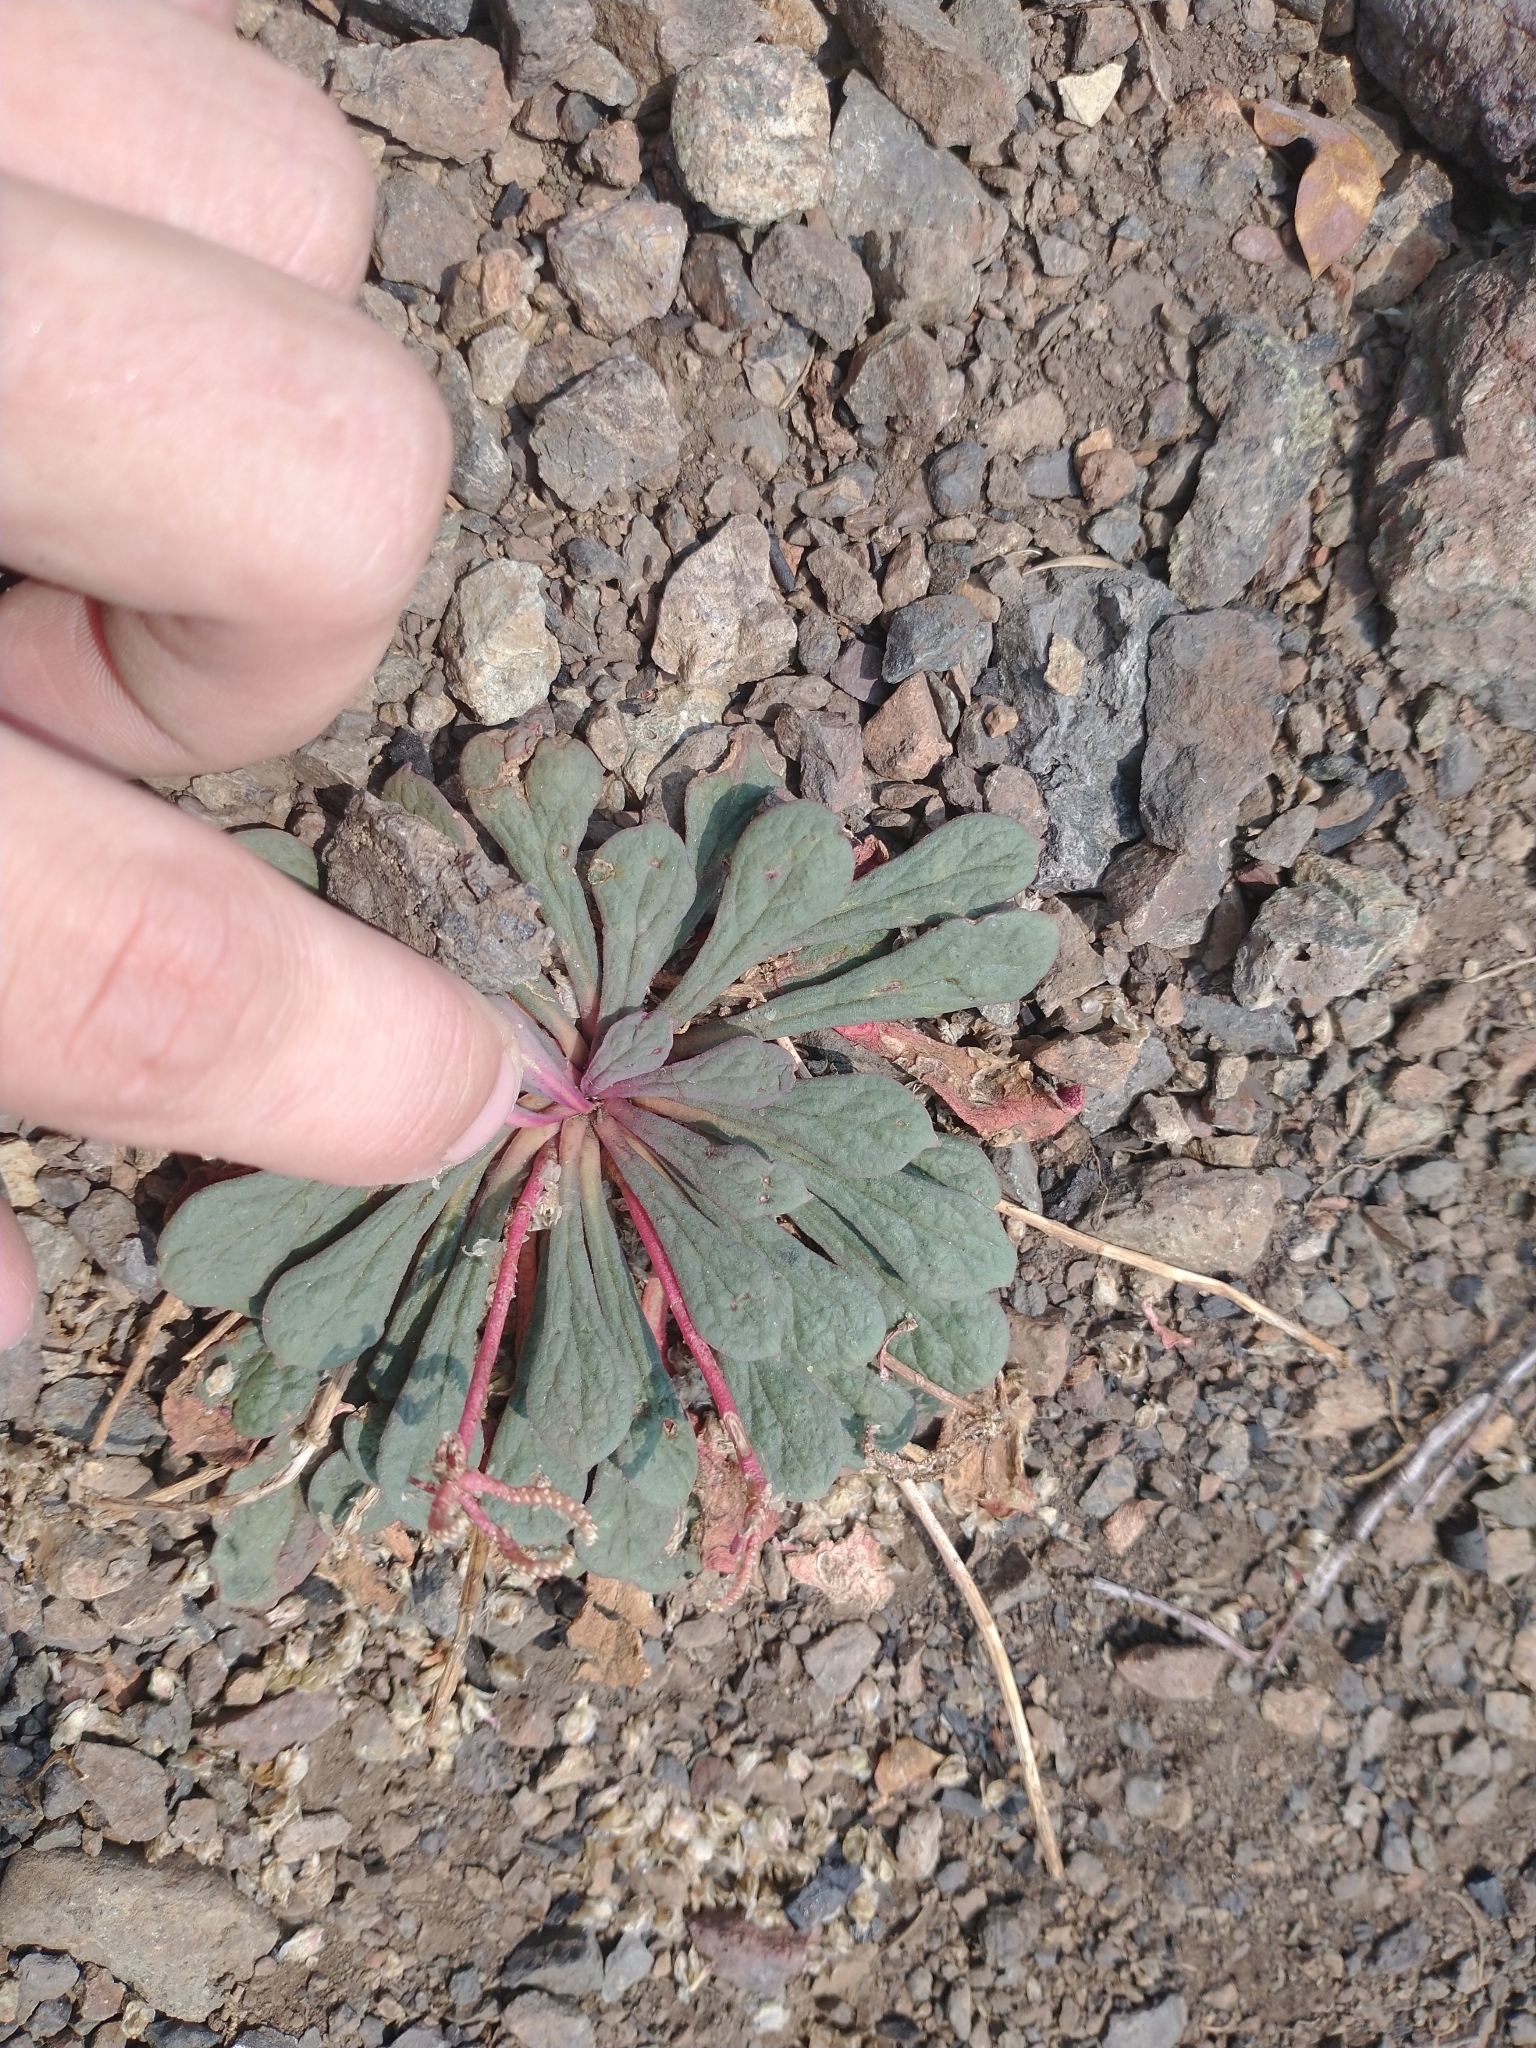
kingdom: Plantae
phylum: Tracheophyta
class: Magnoliopsida
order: Caryophyllales
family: Montiaceae
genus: Calyptridium
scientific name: Calyptridium monospermum
